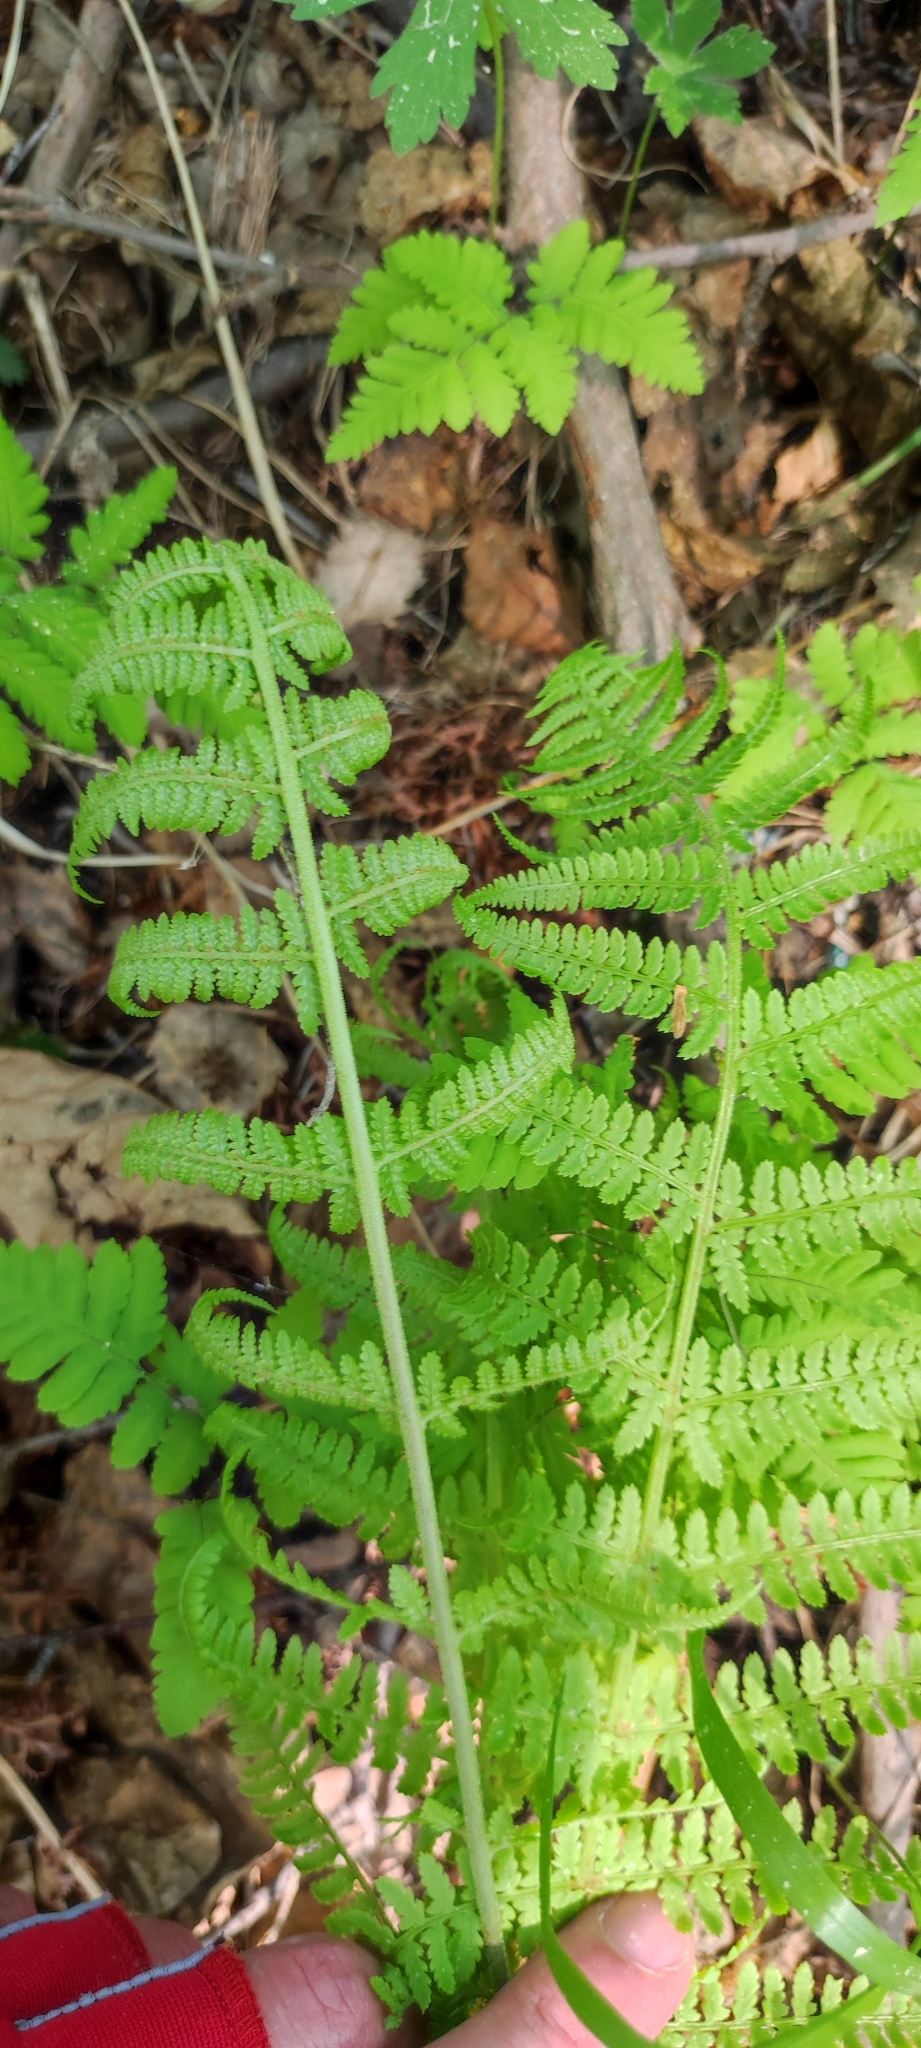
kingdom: Plantae
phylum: Tracheophyta
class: Polypodiopsida
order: Polypodiales
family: Athyriaceae
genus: Athyrium
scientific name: Athyrium filix-femina
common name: Lady fern
